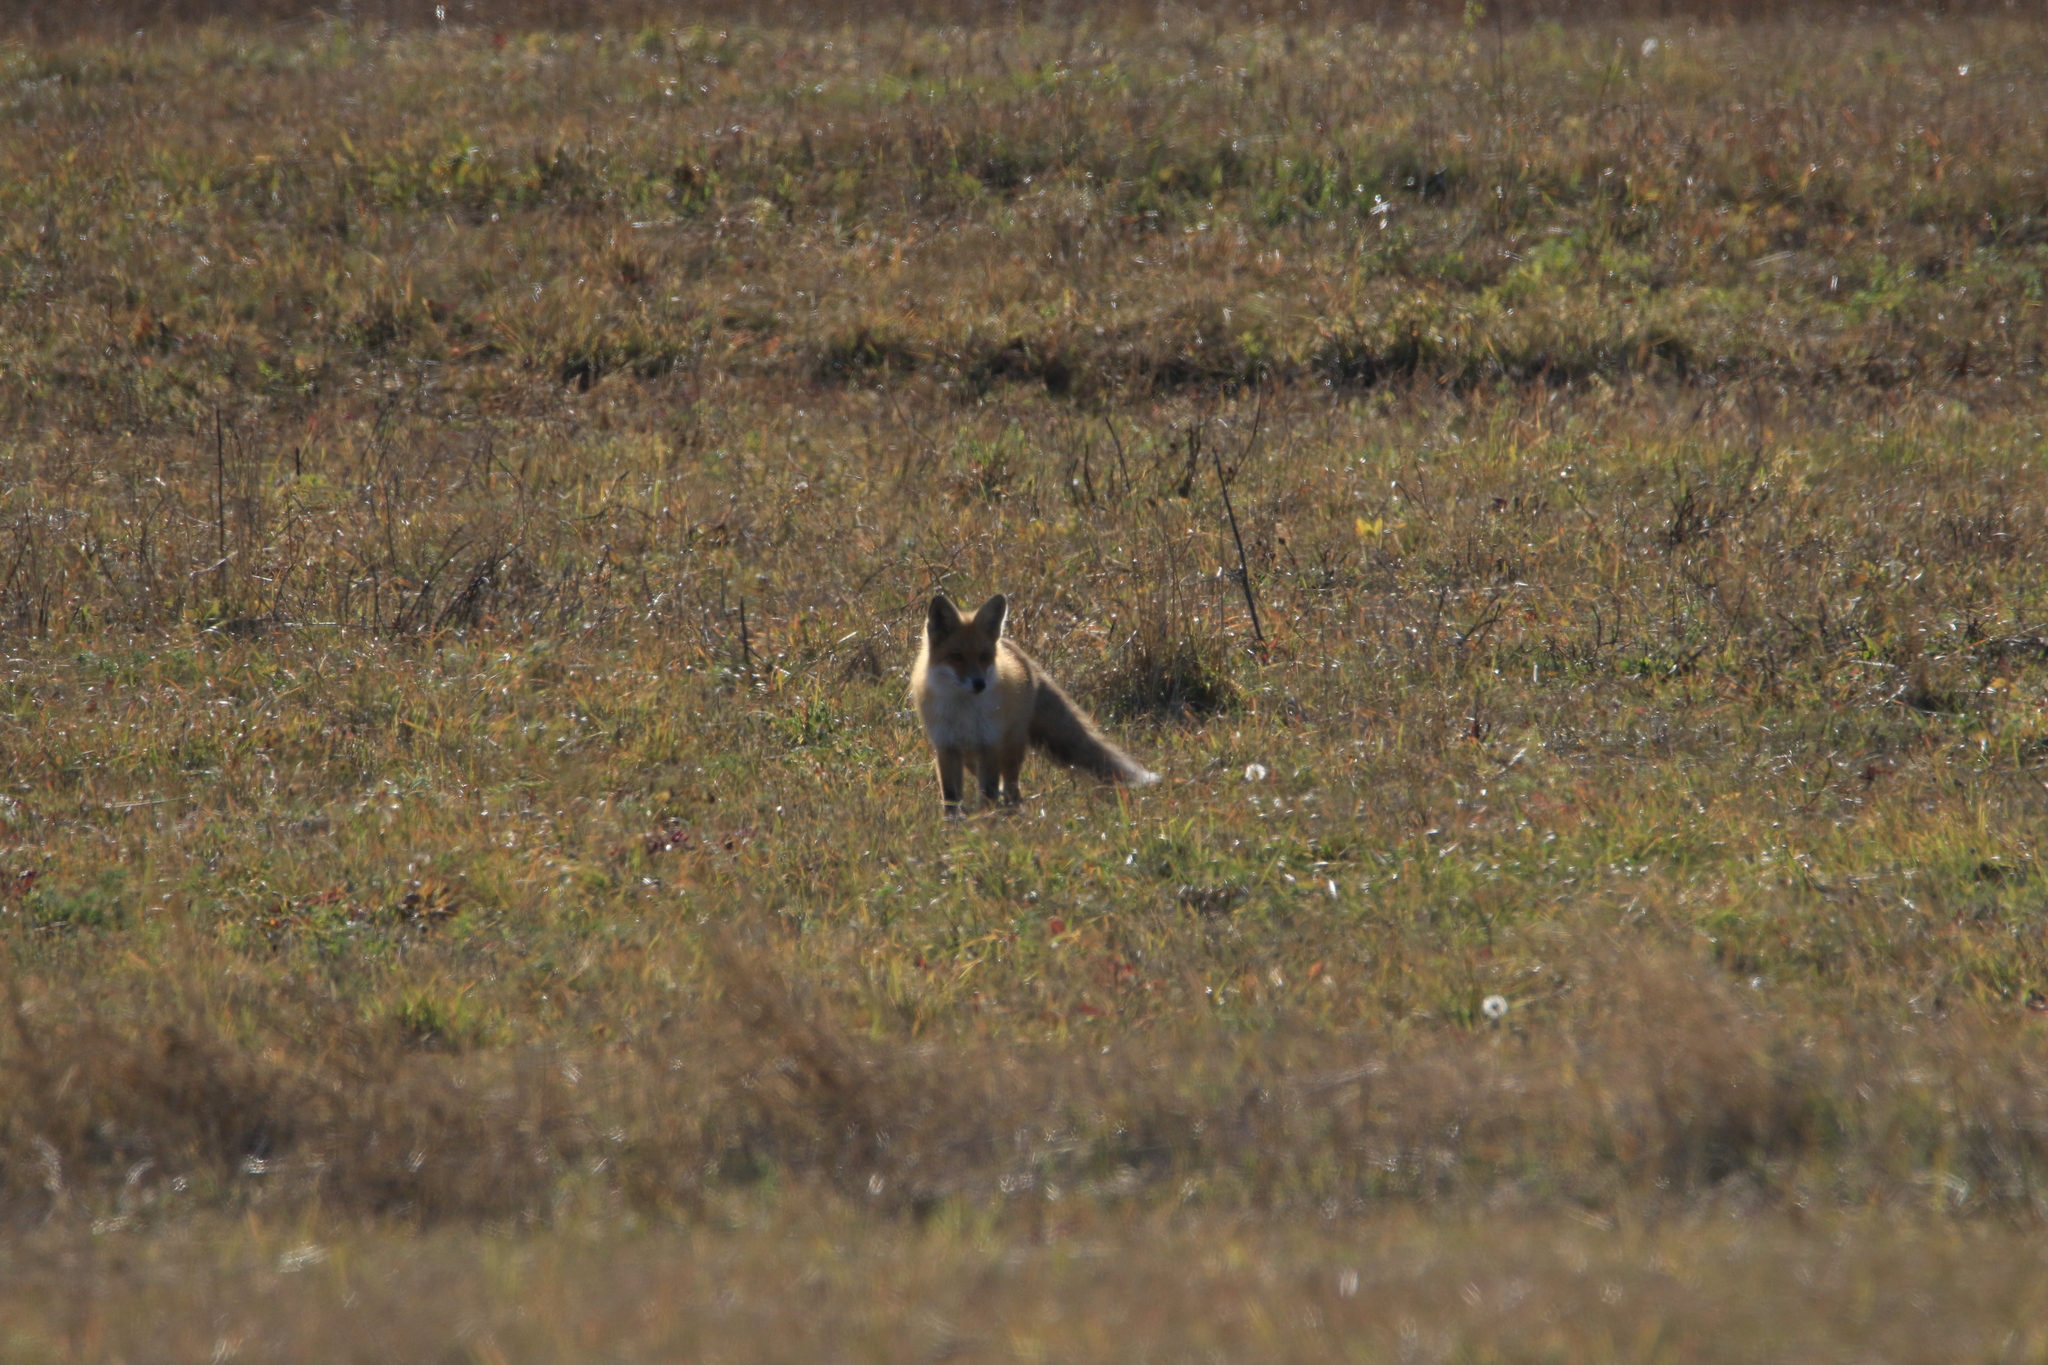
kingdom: Animalia
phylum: Chordata
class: Mammalia
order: Carnivora
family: Canidae
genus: Vulpes
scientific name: Vulpes vulpes
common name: Red fox
